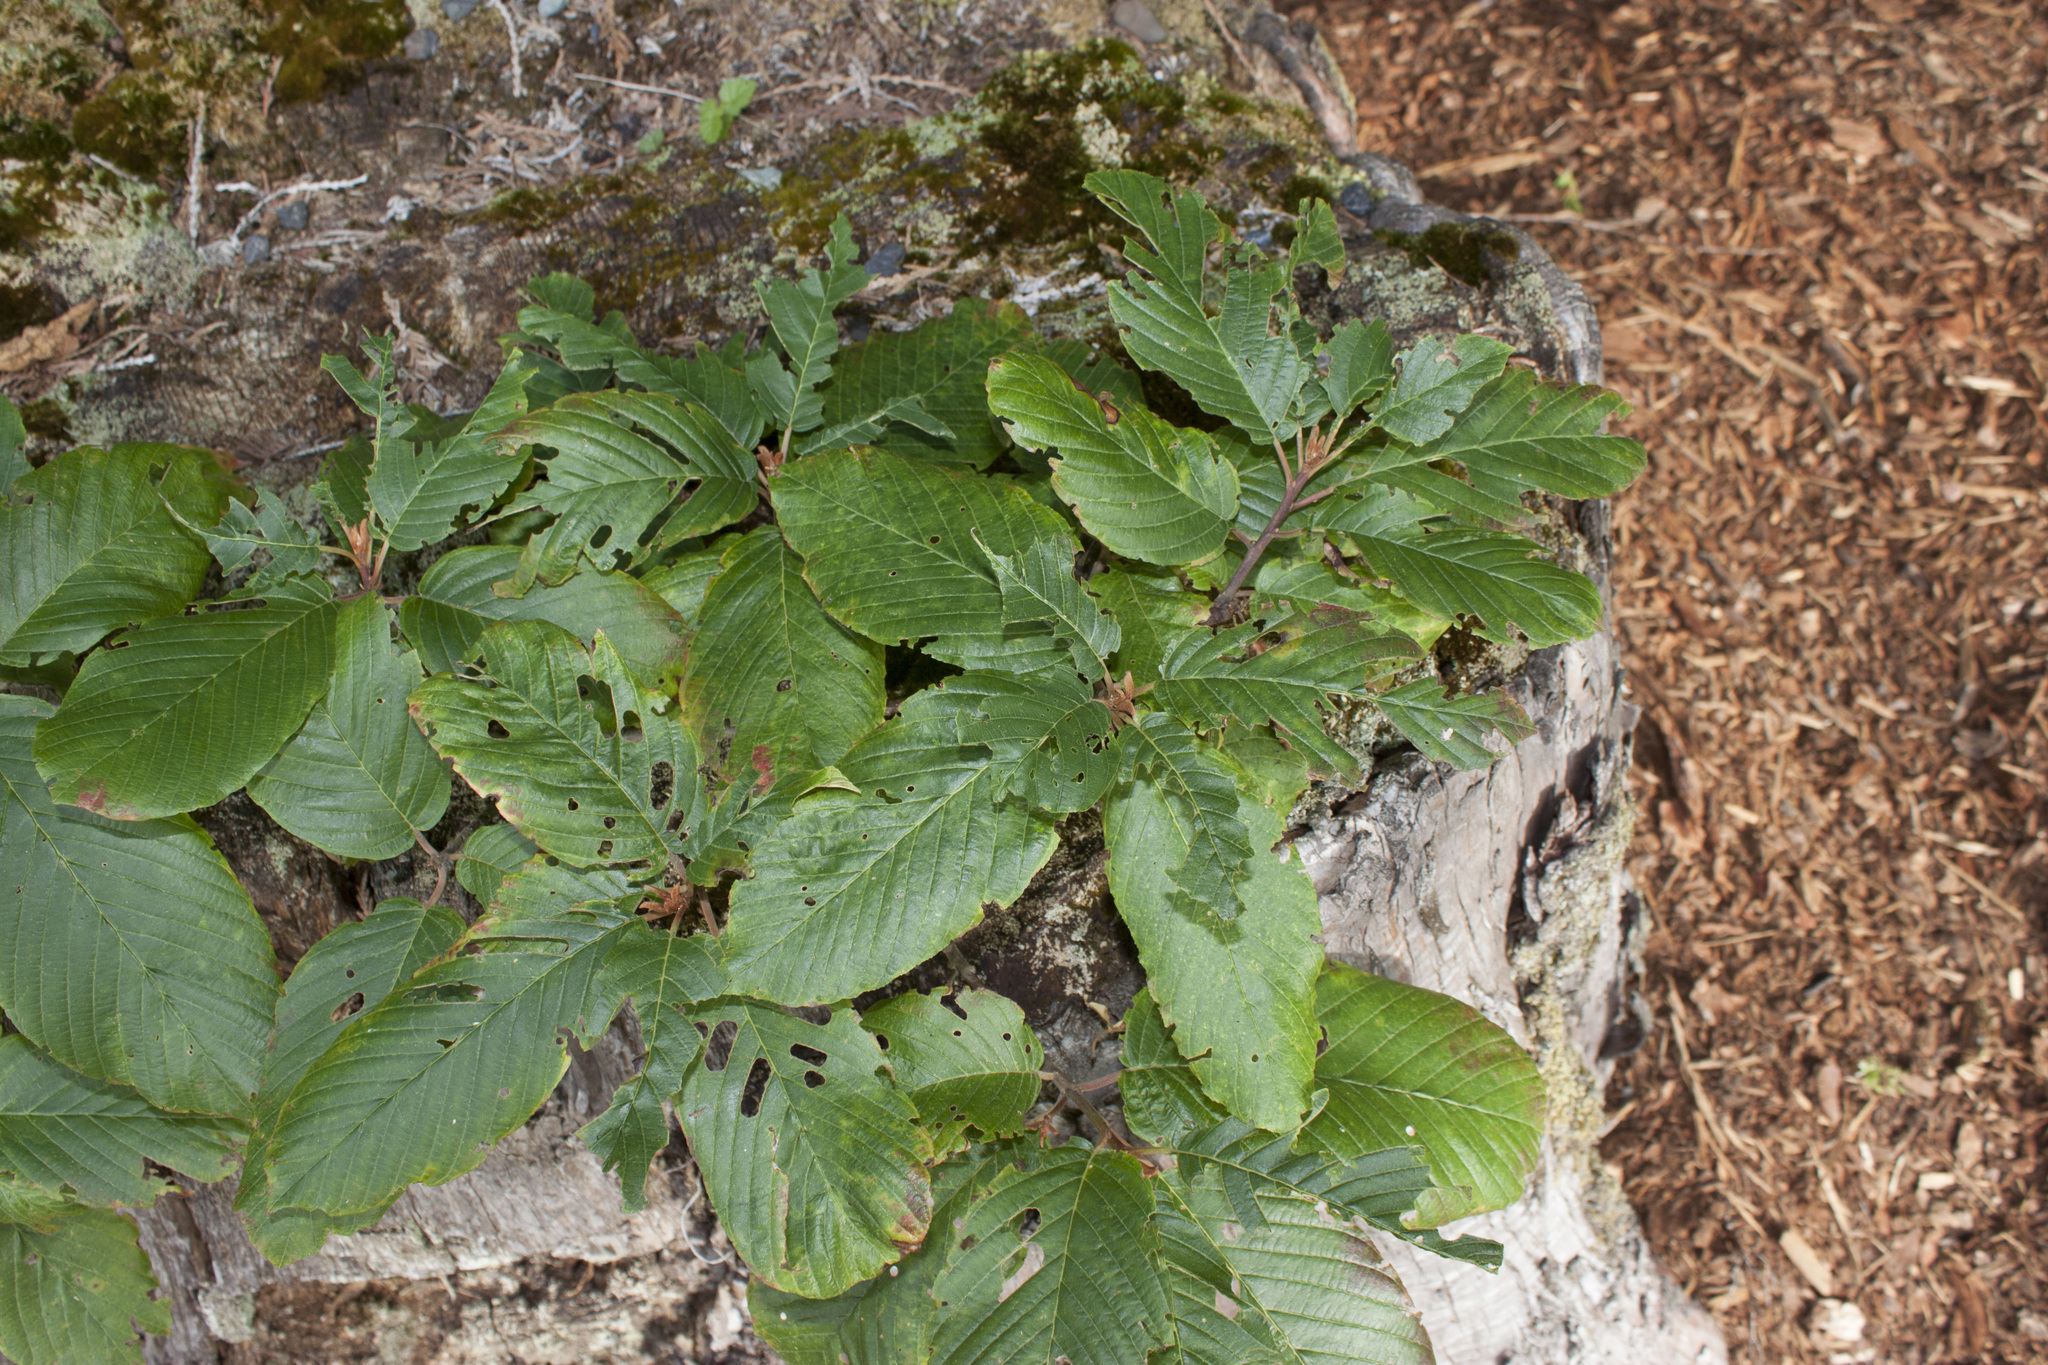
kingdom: Plantae
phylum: Tracheophyta
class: Magnoliopsida
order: Rosales
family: Rhamnaceae
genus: Frangula
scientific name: Frangula purshiana
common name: Cascara buckthorn
